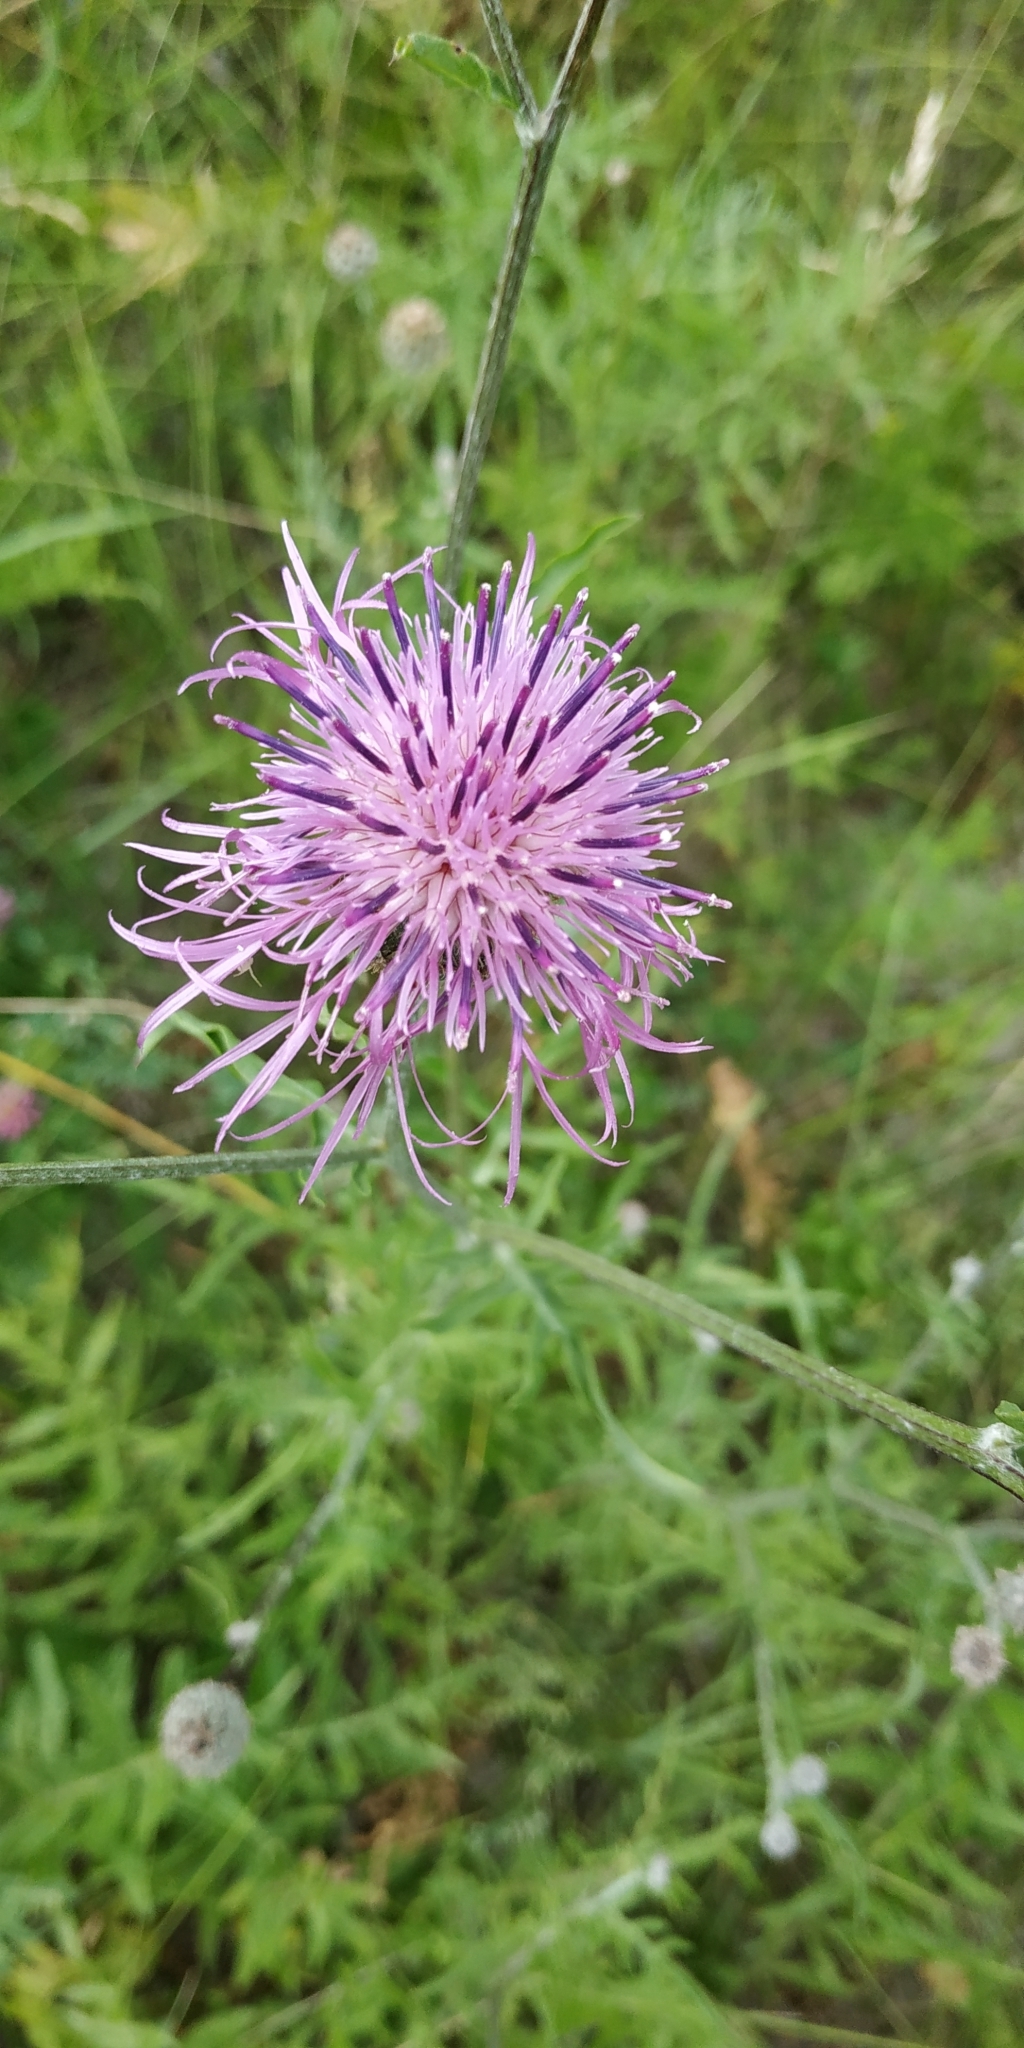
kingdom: Plantae
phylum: Tracheophyta
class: Magnoliopsida
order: Asterales
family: Asteraceae
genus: Centaurea
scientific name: Centaurea scabiosa
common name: Greater knapweed
